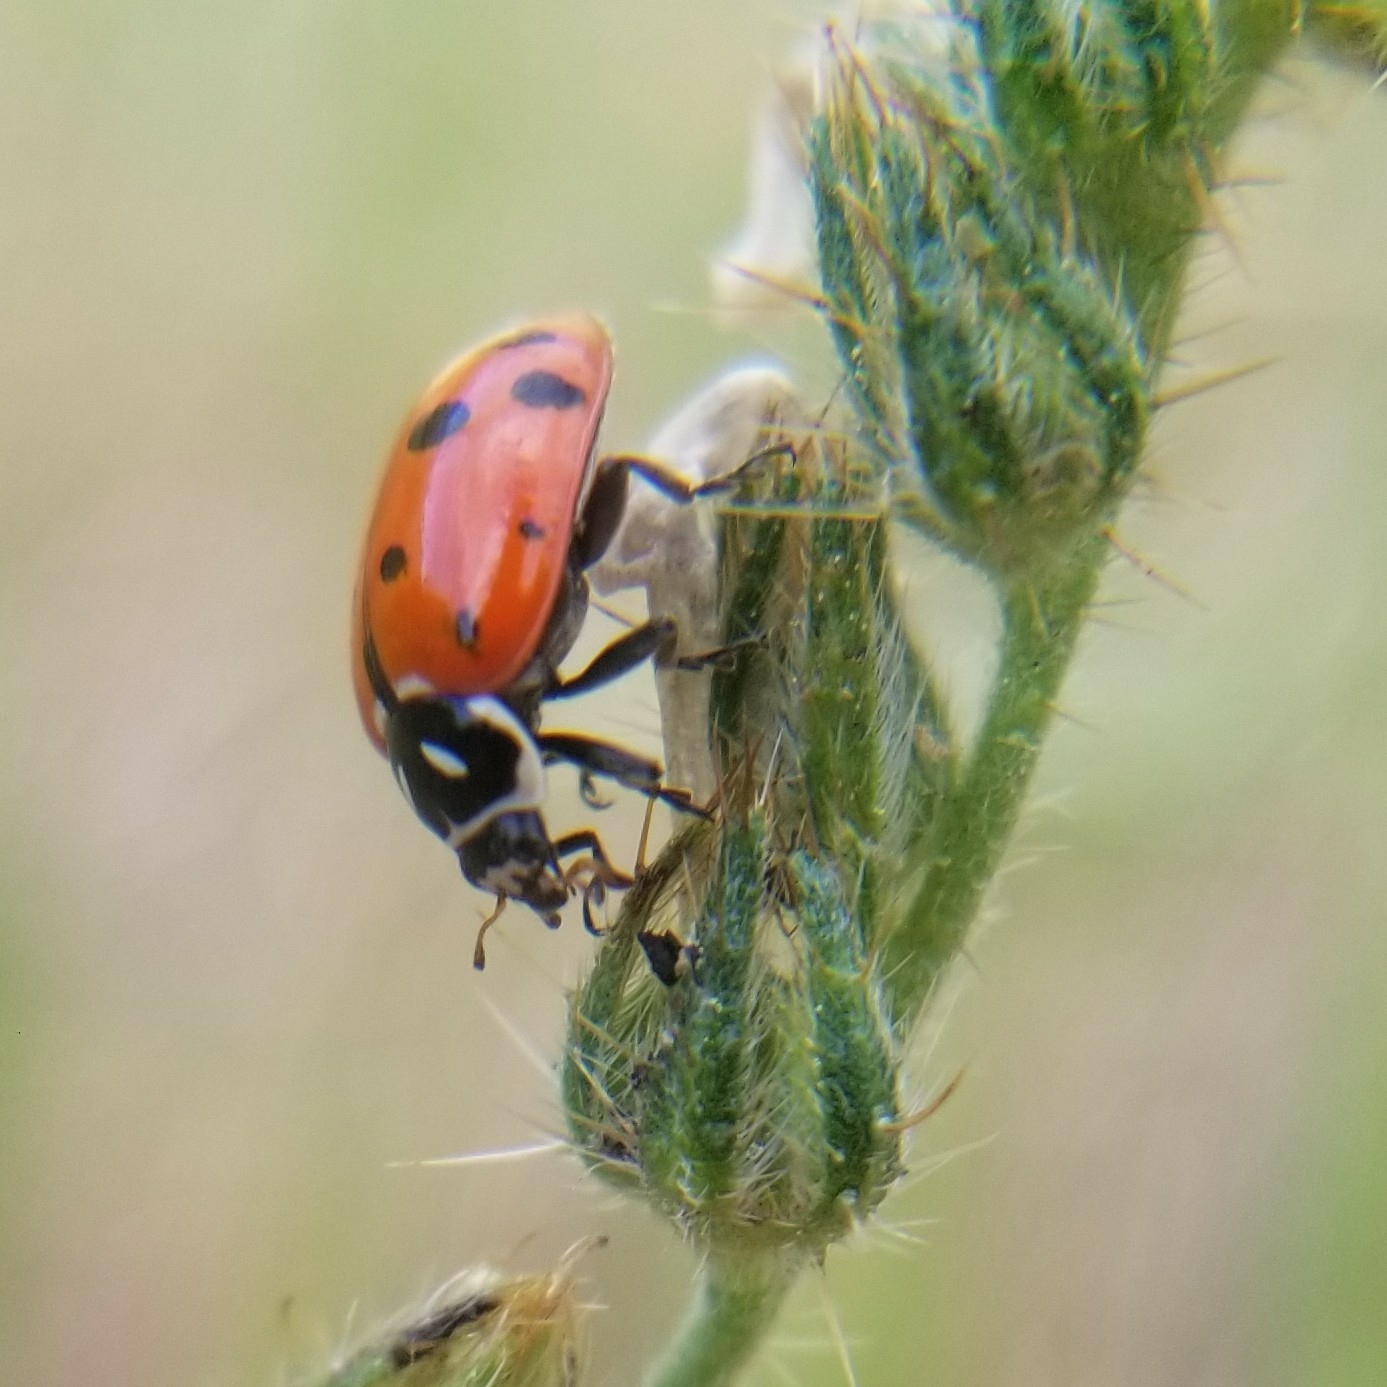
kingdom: Animalia
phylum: Arthropoda
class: Insecta
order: Coleoptera
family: Coccinellidae
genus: Hippodamia
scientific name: Hippodamia convergens
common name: Convergent lady beetle
